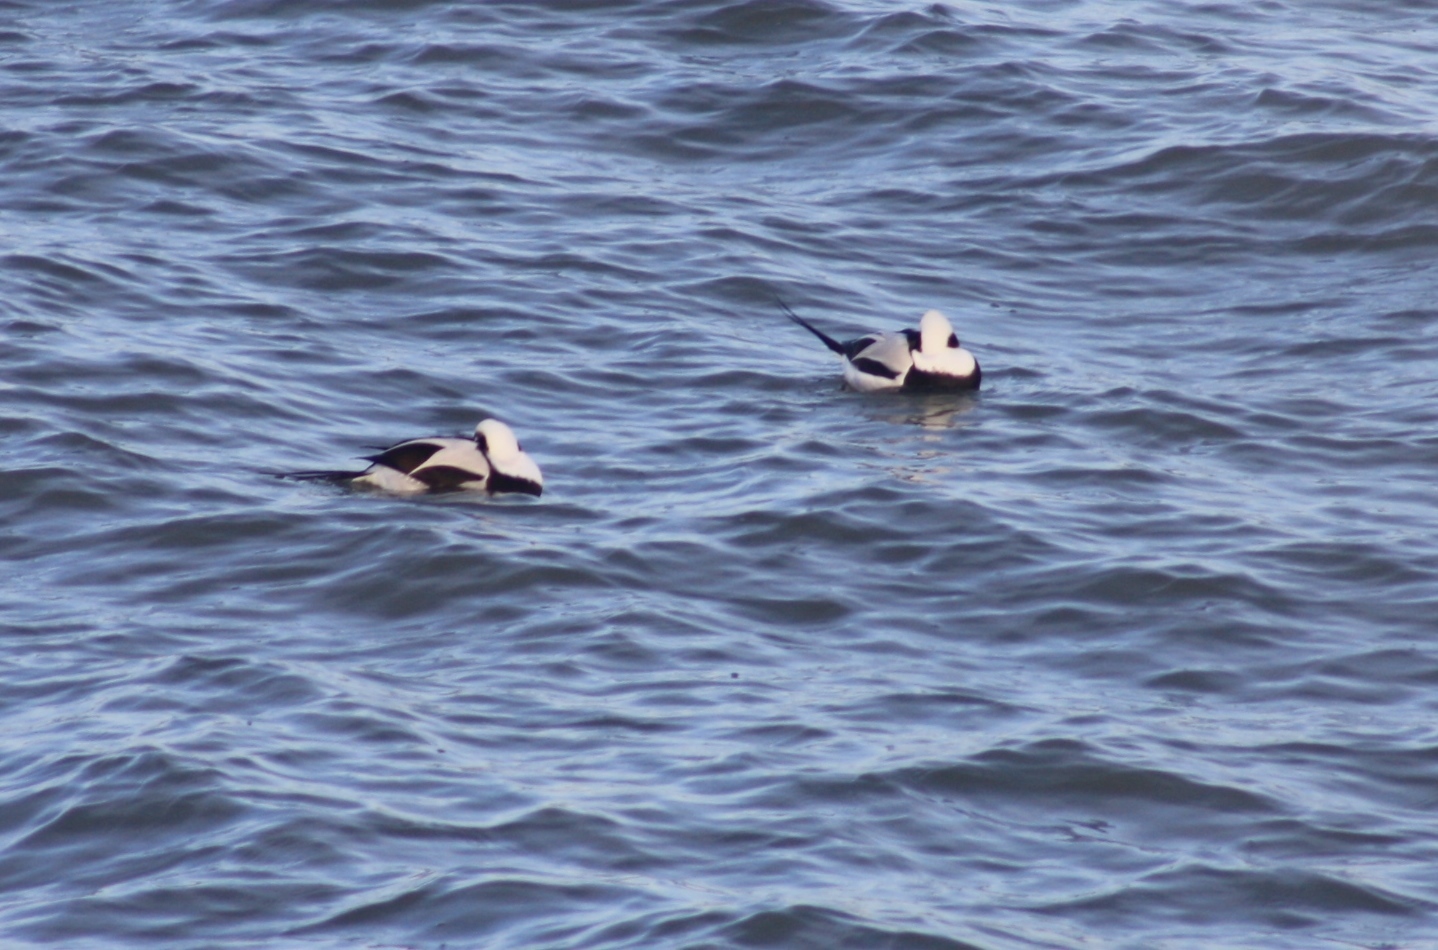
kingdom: Animalia
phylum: Chordata
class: Aves
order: Anseriformes
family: Anatidae
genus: Clangula
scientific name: Clangula hyemalis
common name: Long-tailed duck
